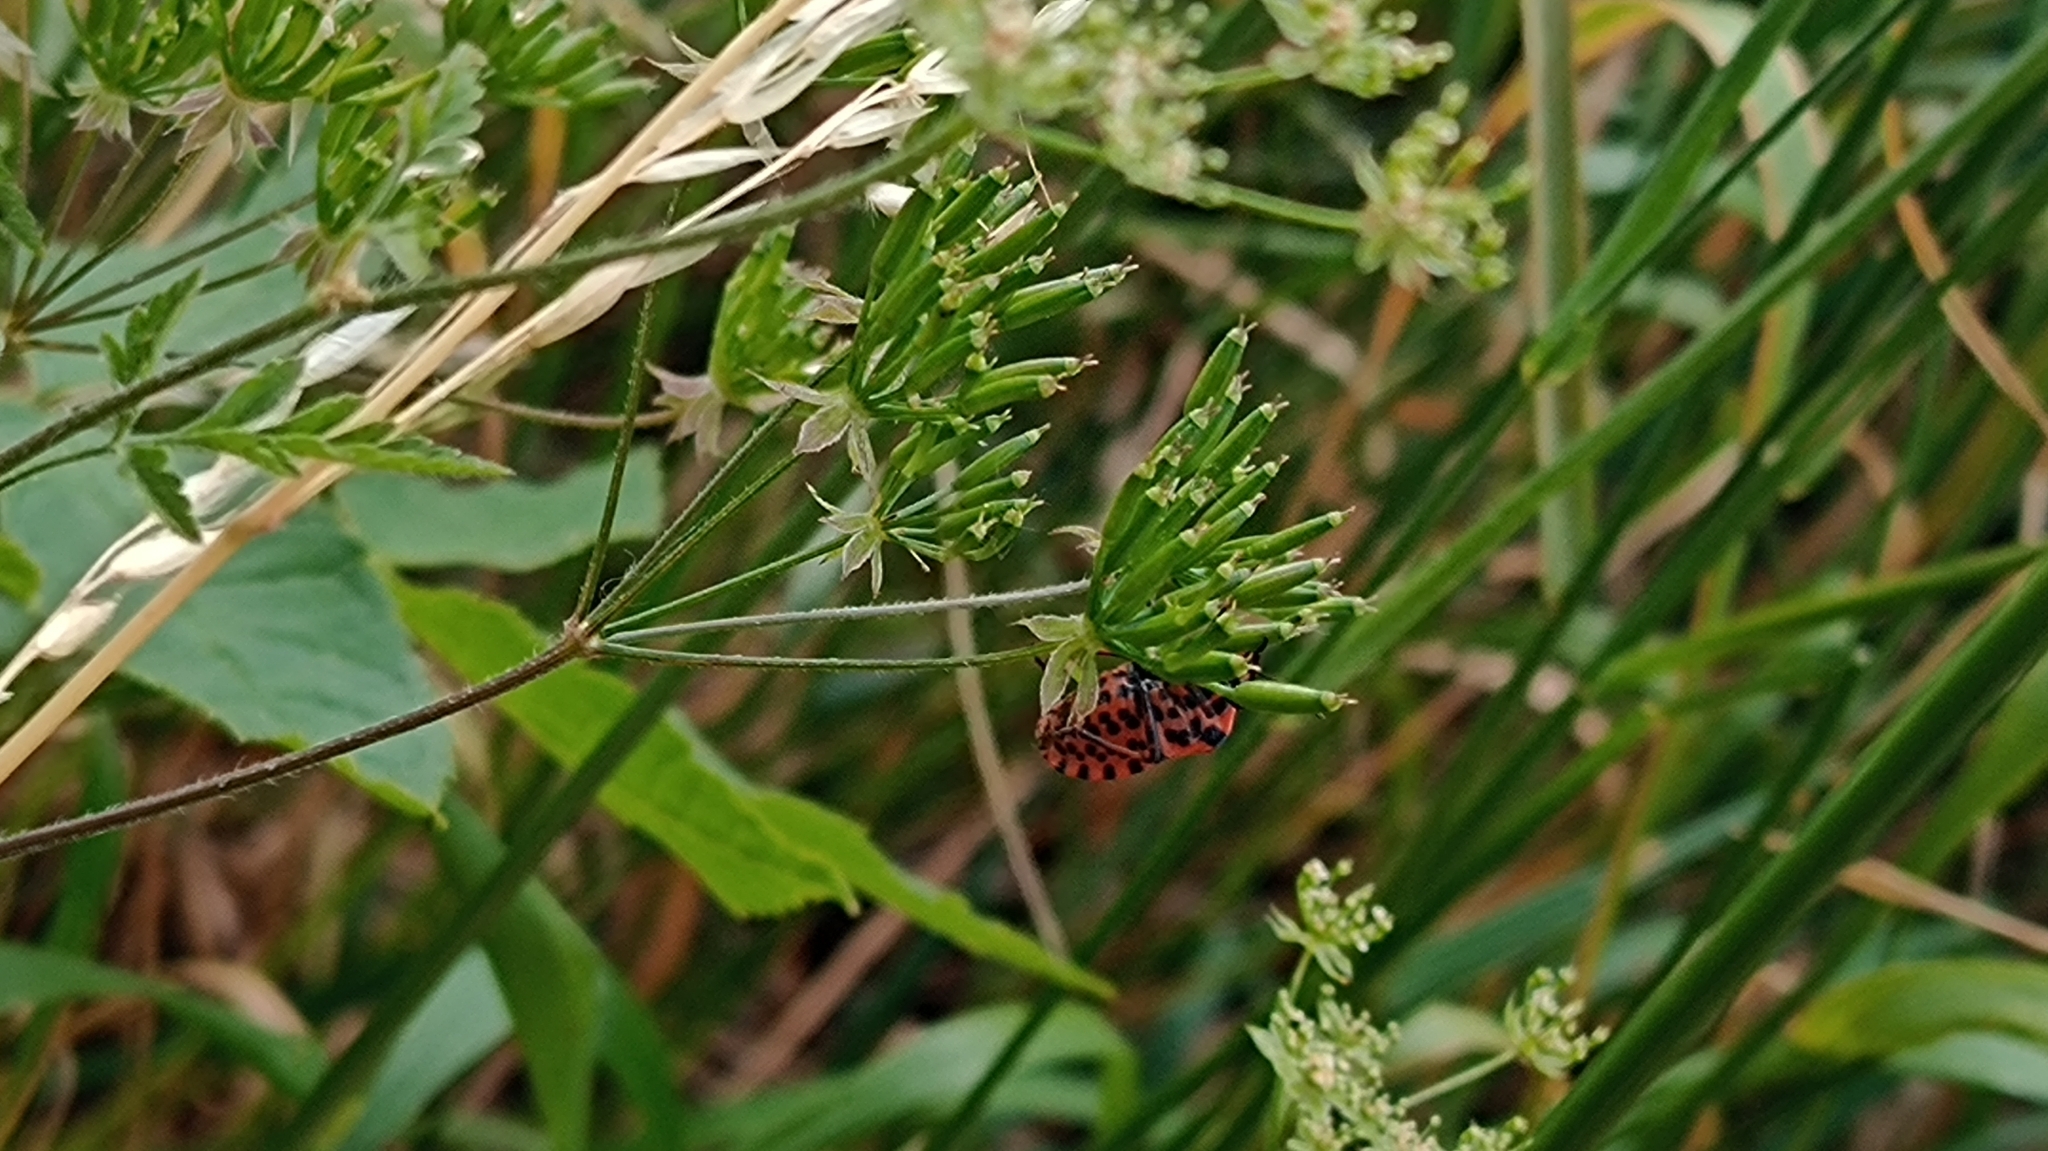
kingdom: Animalia
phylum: Arthropoda
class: Insecta
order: Hemiptera
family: Pentatomidae
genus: Graphosoma
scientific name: Graphosoma italicum
